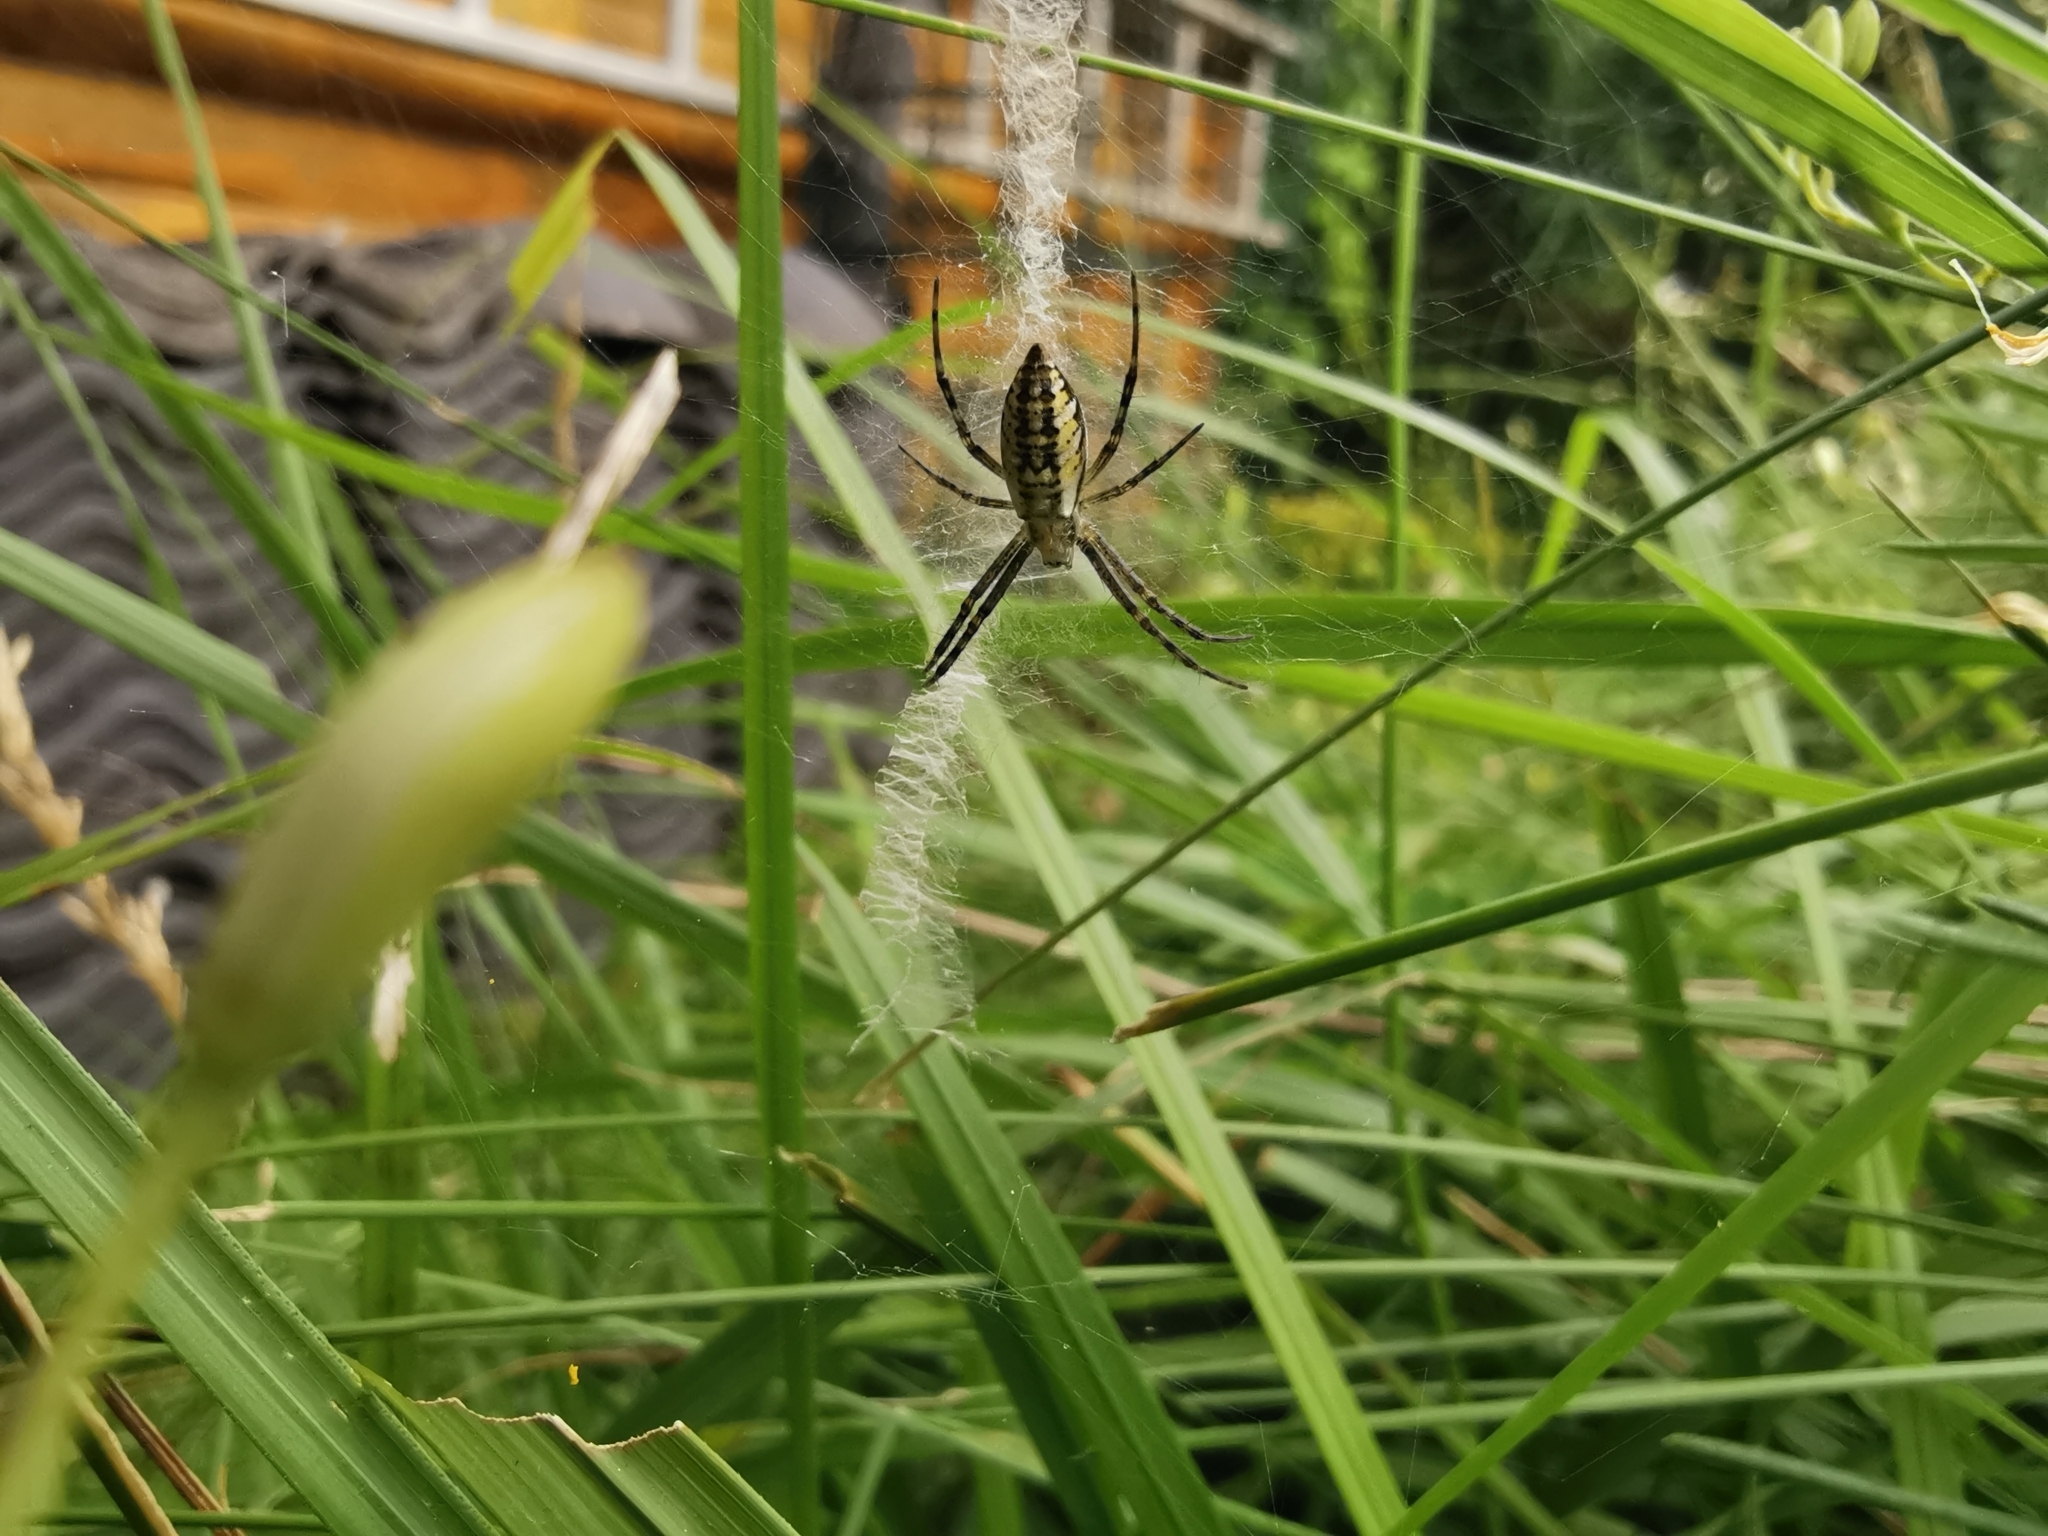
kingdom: Animalia
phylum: Arthropoda
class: Arachnida
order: Araneae
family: Araneidae
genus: Argiope
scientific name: Argiope bruennichi
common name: Wasp spider
